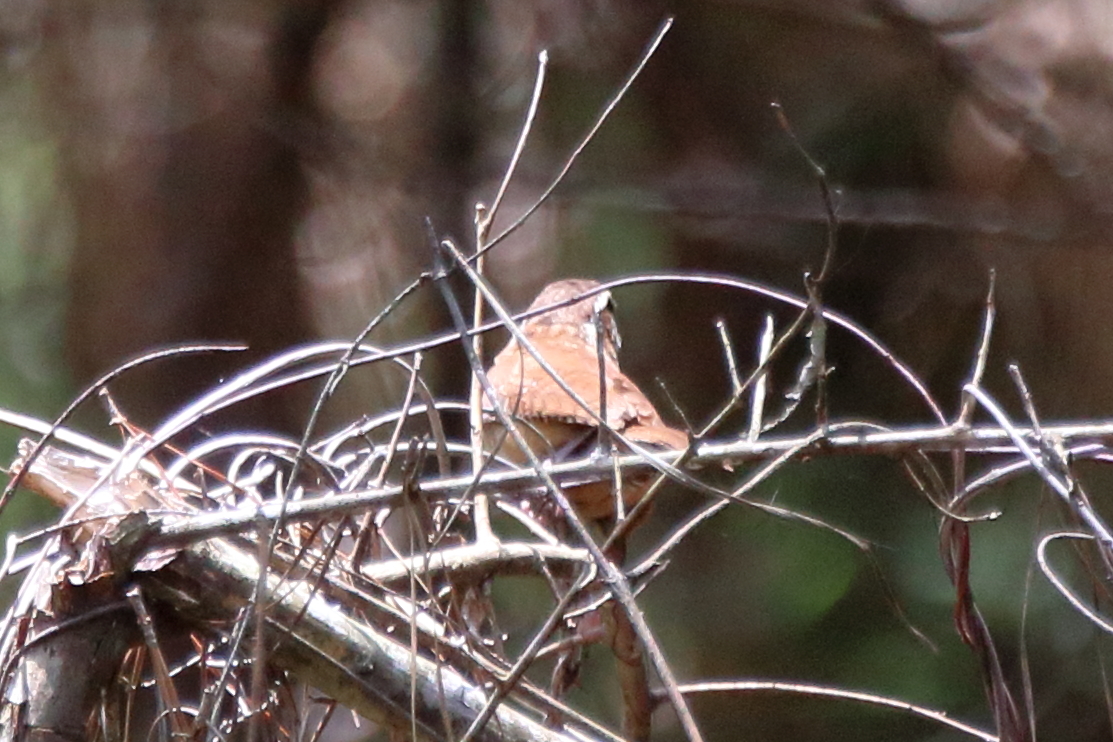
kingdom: Animalia
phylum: Chordata
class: Aves
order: Passeriformes
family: Troglodytidae
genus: Thryothorus
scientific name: Thryothorus ludovicianus
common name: Carolina wren
